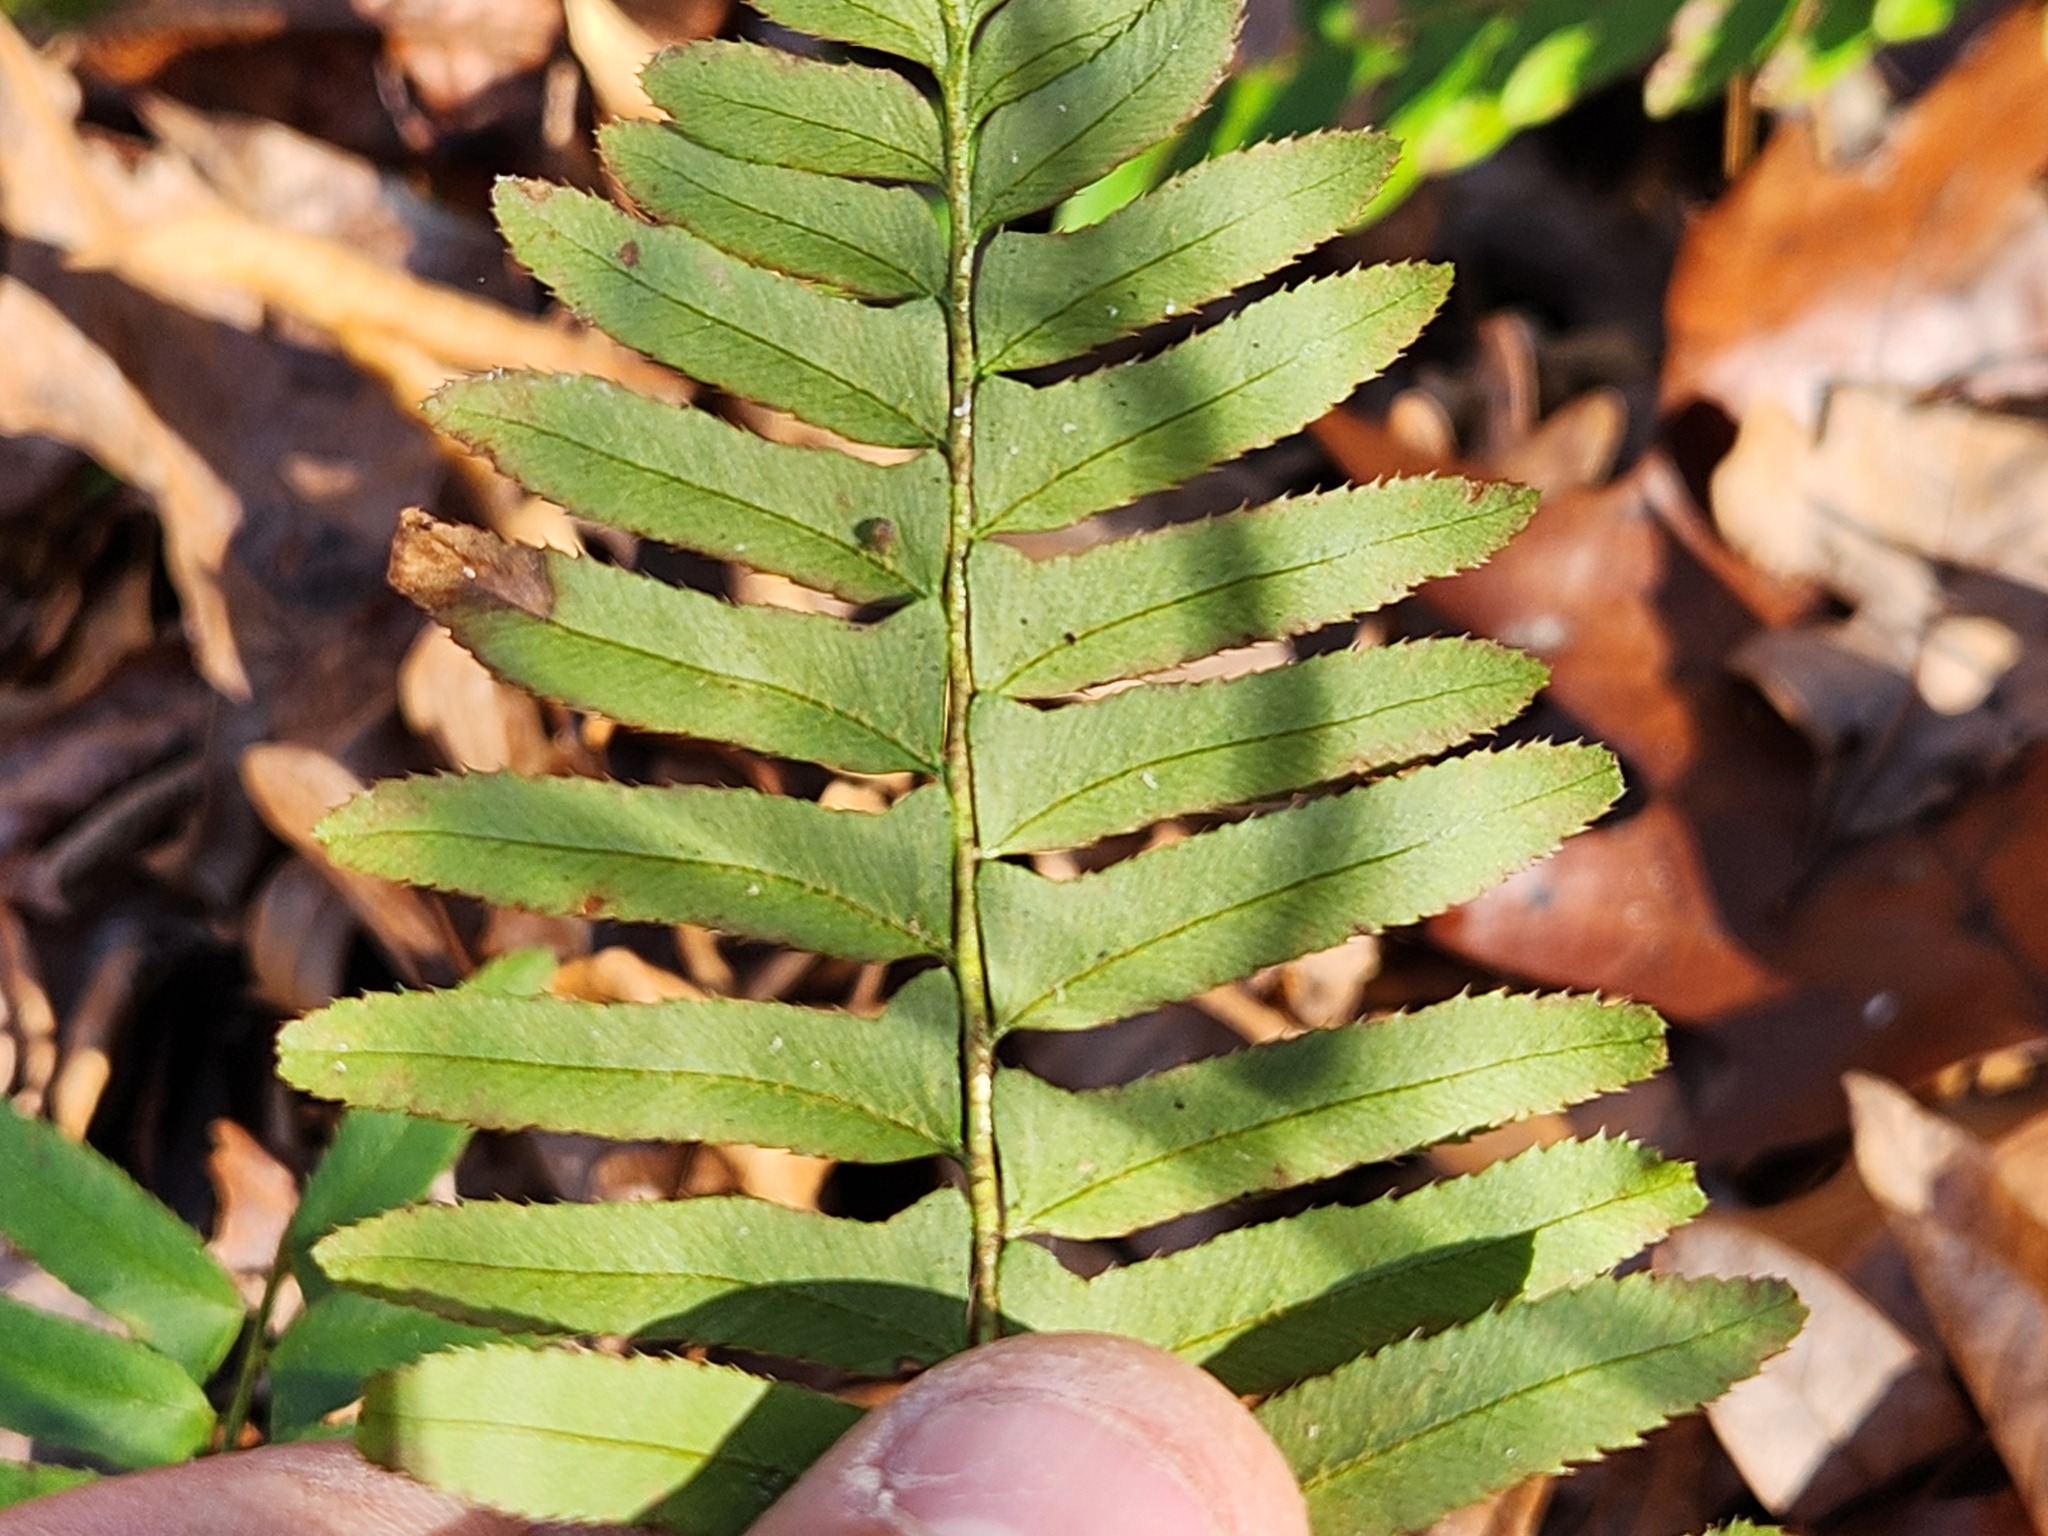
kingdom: Plantae
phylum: Tracheophyta
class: Polypodiopsida
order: Polypodiales
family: Dryopteridaceae
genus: Polystichum
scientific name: Polystichum acrostichoides
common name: Christmas fern
